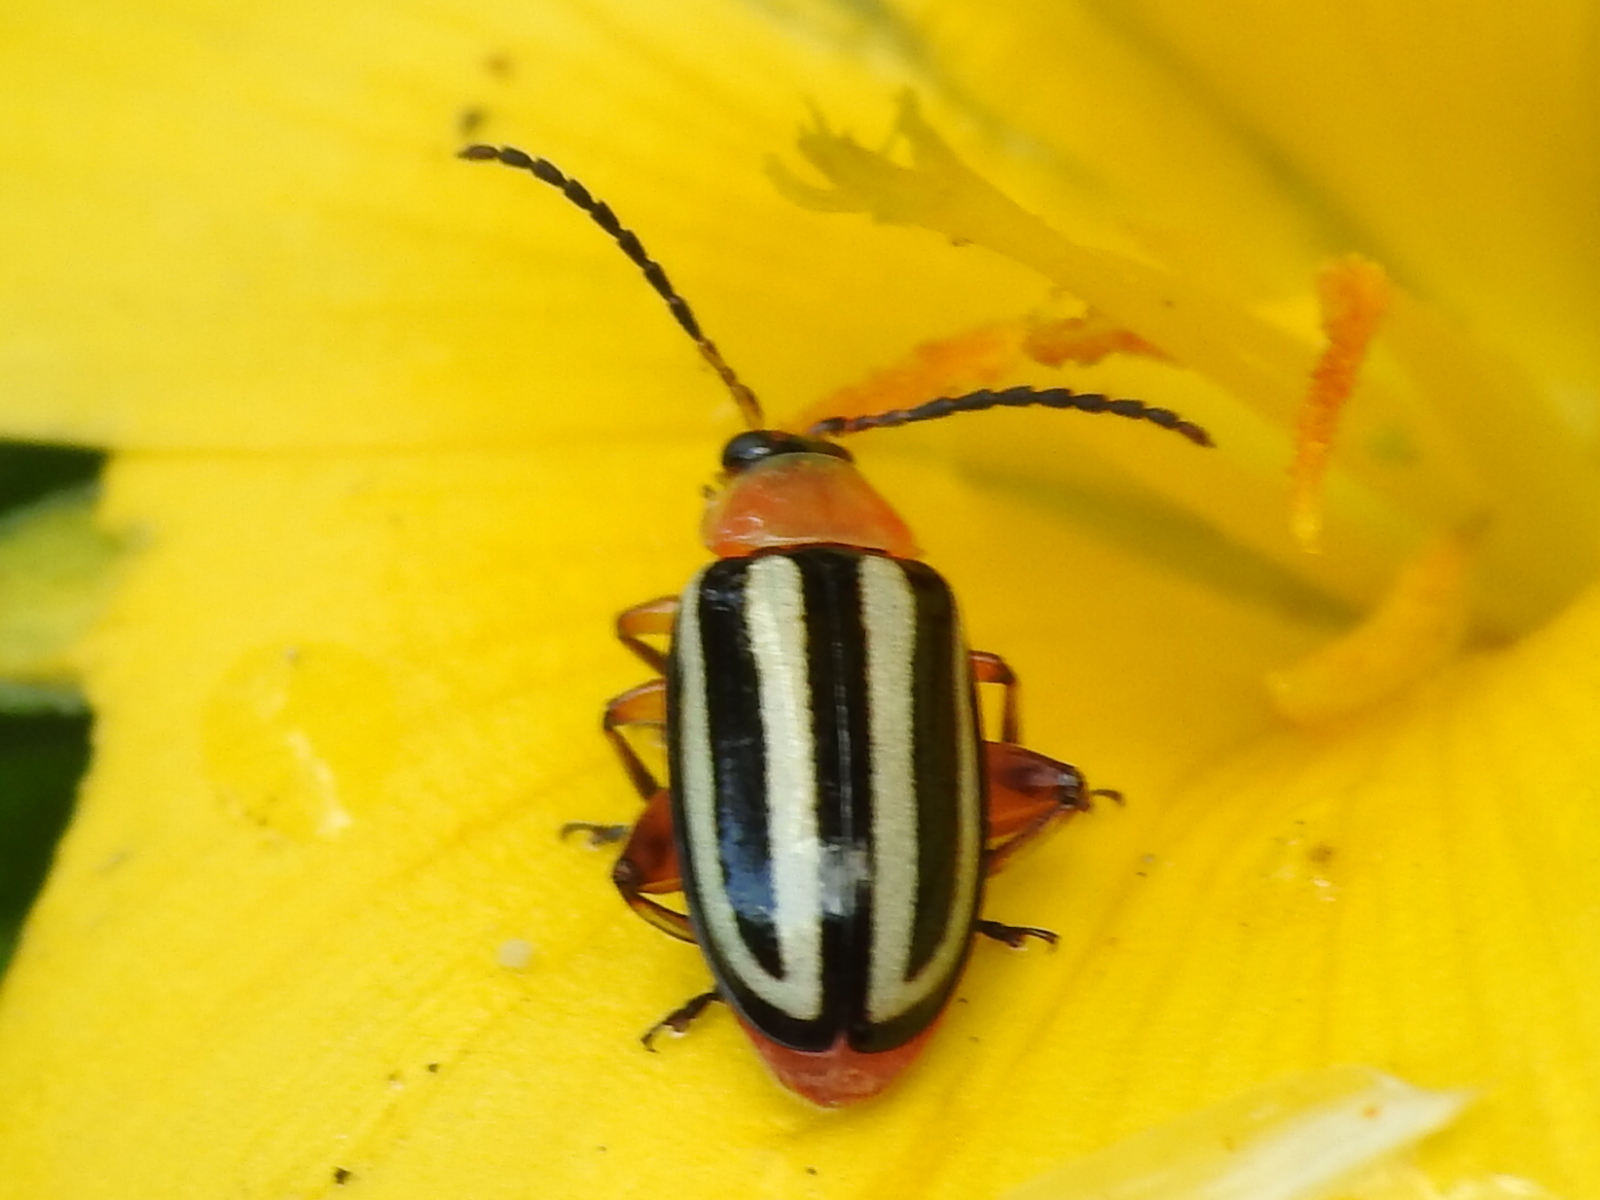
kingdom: Animalia
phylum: Arthropoda
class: Insecta
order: Coleoptera
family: Chrysomelidae
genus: Disonycha
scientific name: Disonycha glabrata
